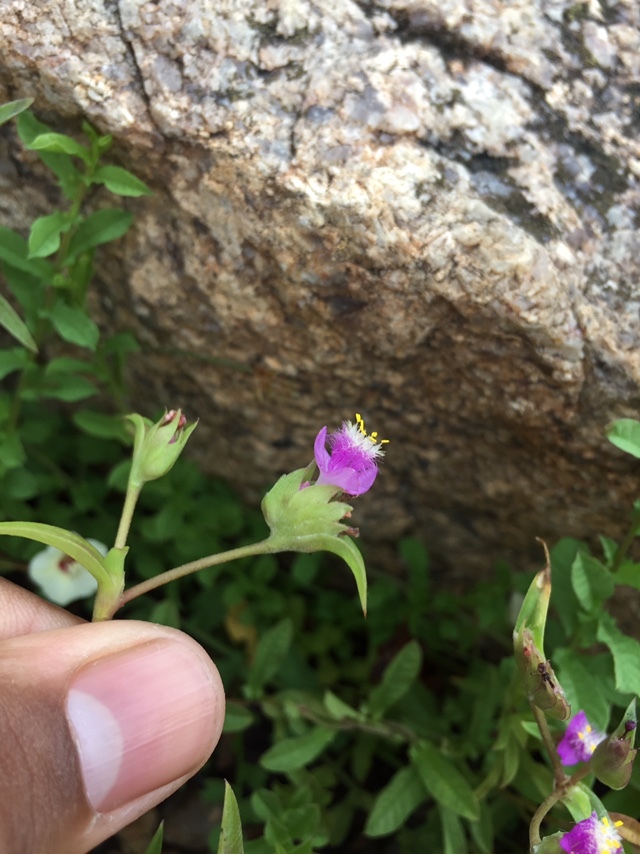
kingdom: Plantae
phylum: Tracheophyta
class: Liliopsida
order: Commelinales
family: Commelinaceae
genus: Cyanotis
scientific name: Cyanotis fasciculata
